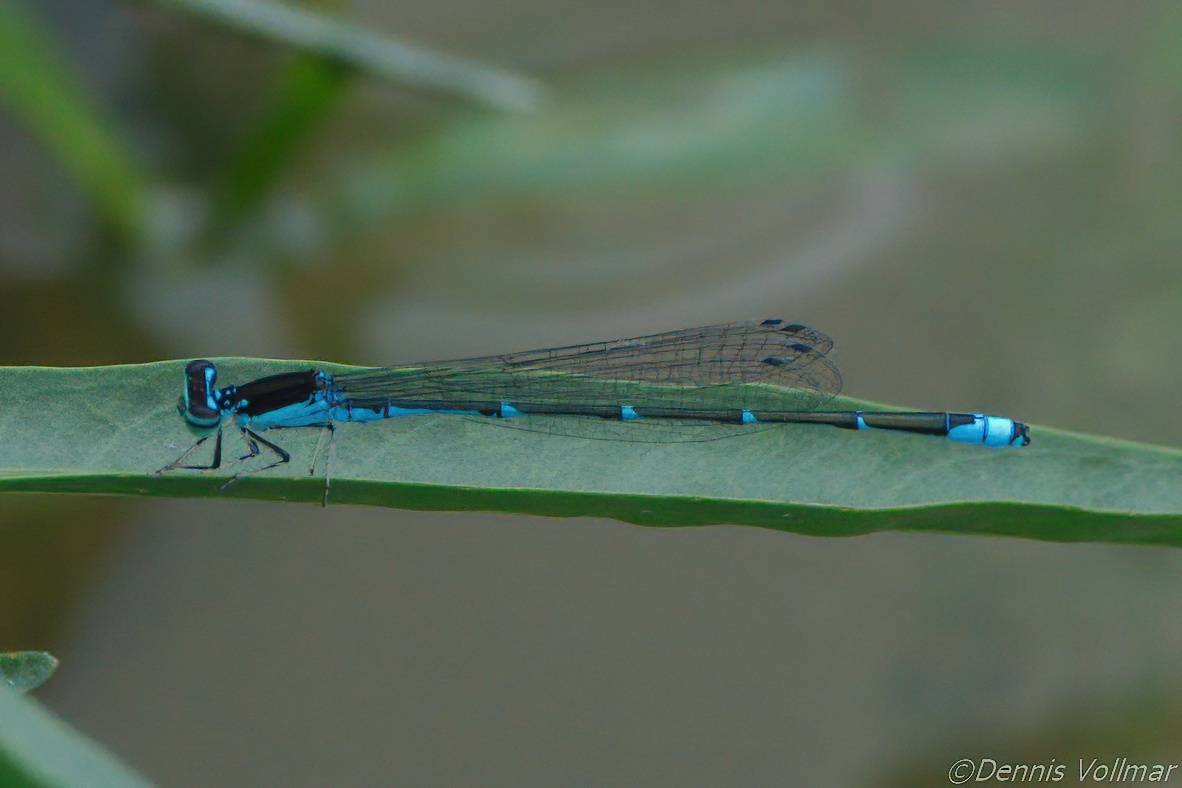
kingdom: Animalia
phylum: Arthropoda
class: Insecta
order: Odonata
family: Coenagrionidae
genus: Enallagma
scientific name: Enallagma exsulans
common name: Stream bluet
